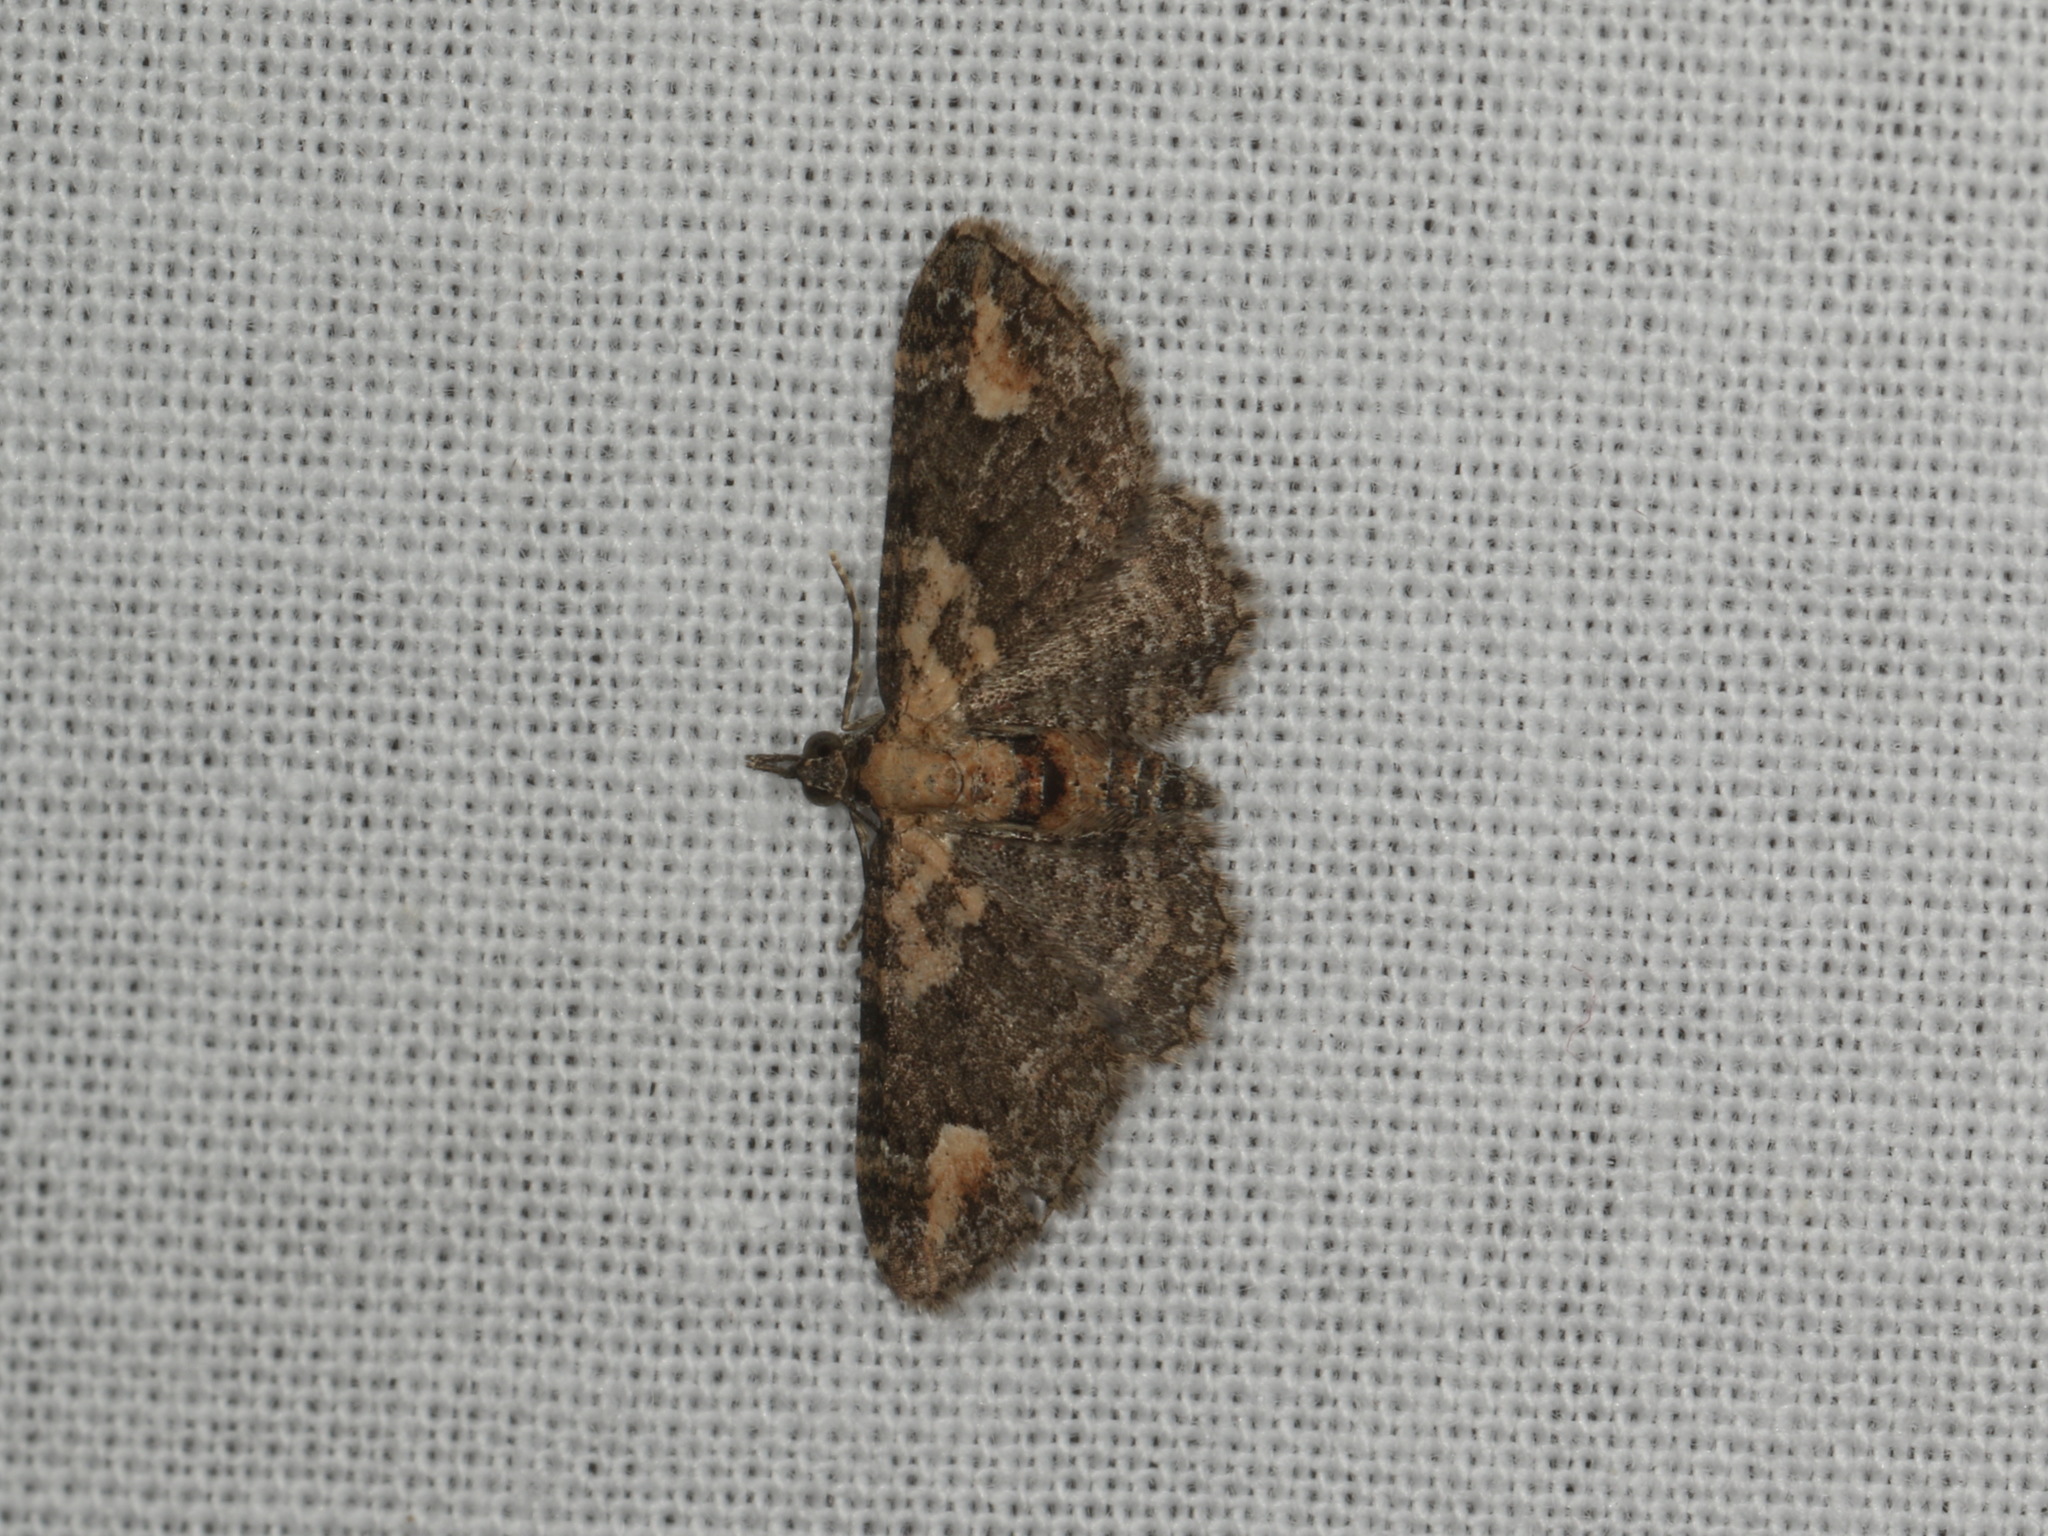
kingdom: Animalia
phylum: Arthropoda
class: Insecta
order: Lepidoptera
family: Geometridae
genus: Pasiphilodes
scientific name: Pasiphilodes testulata
